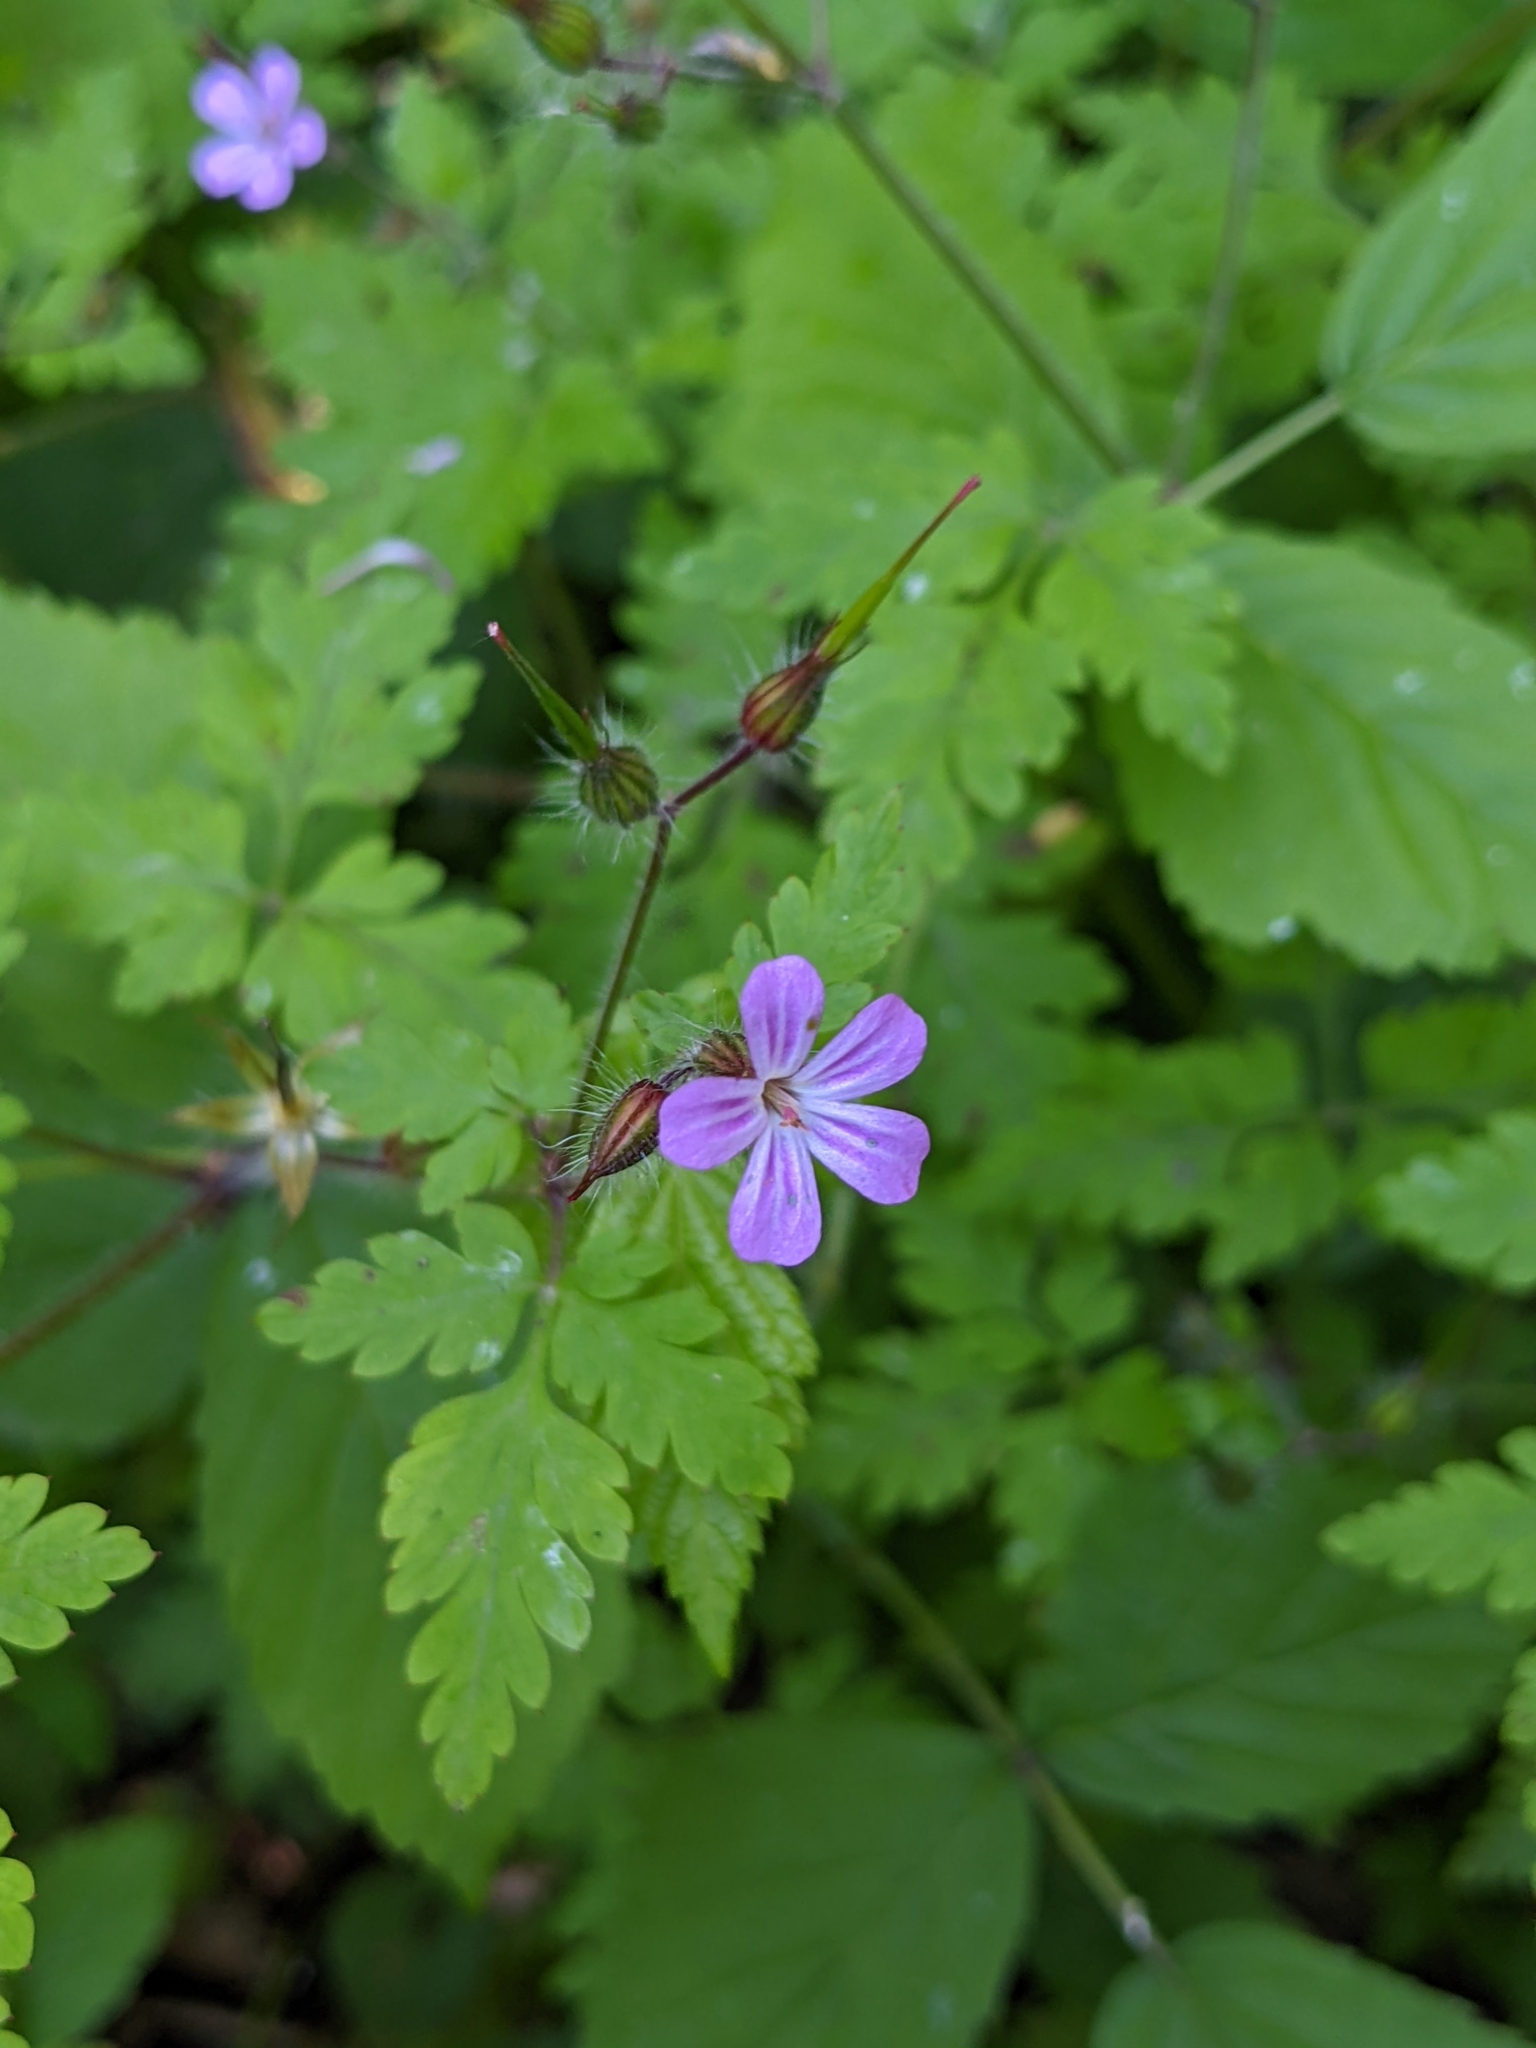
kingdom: Plantae
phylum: Tracheophyta
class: Magnoliopsida
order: Geraniales
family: Geraniaceae
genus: Geranium
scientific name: Geranium robertianum
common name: Herb-robert
